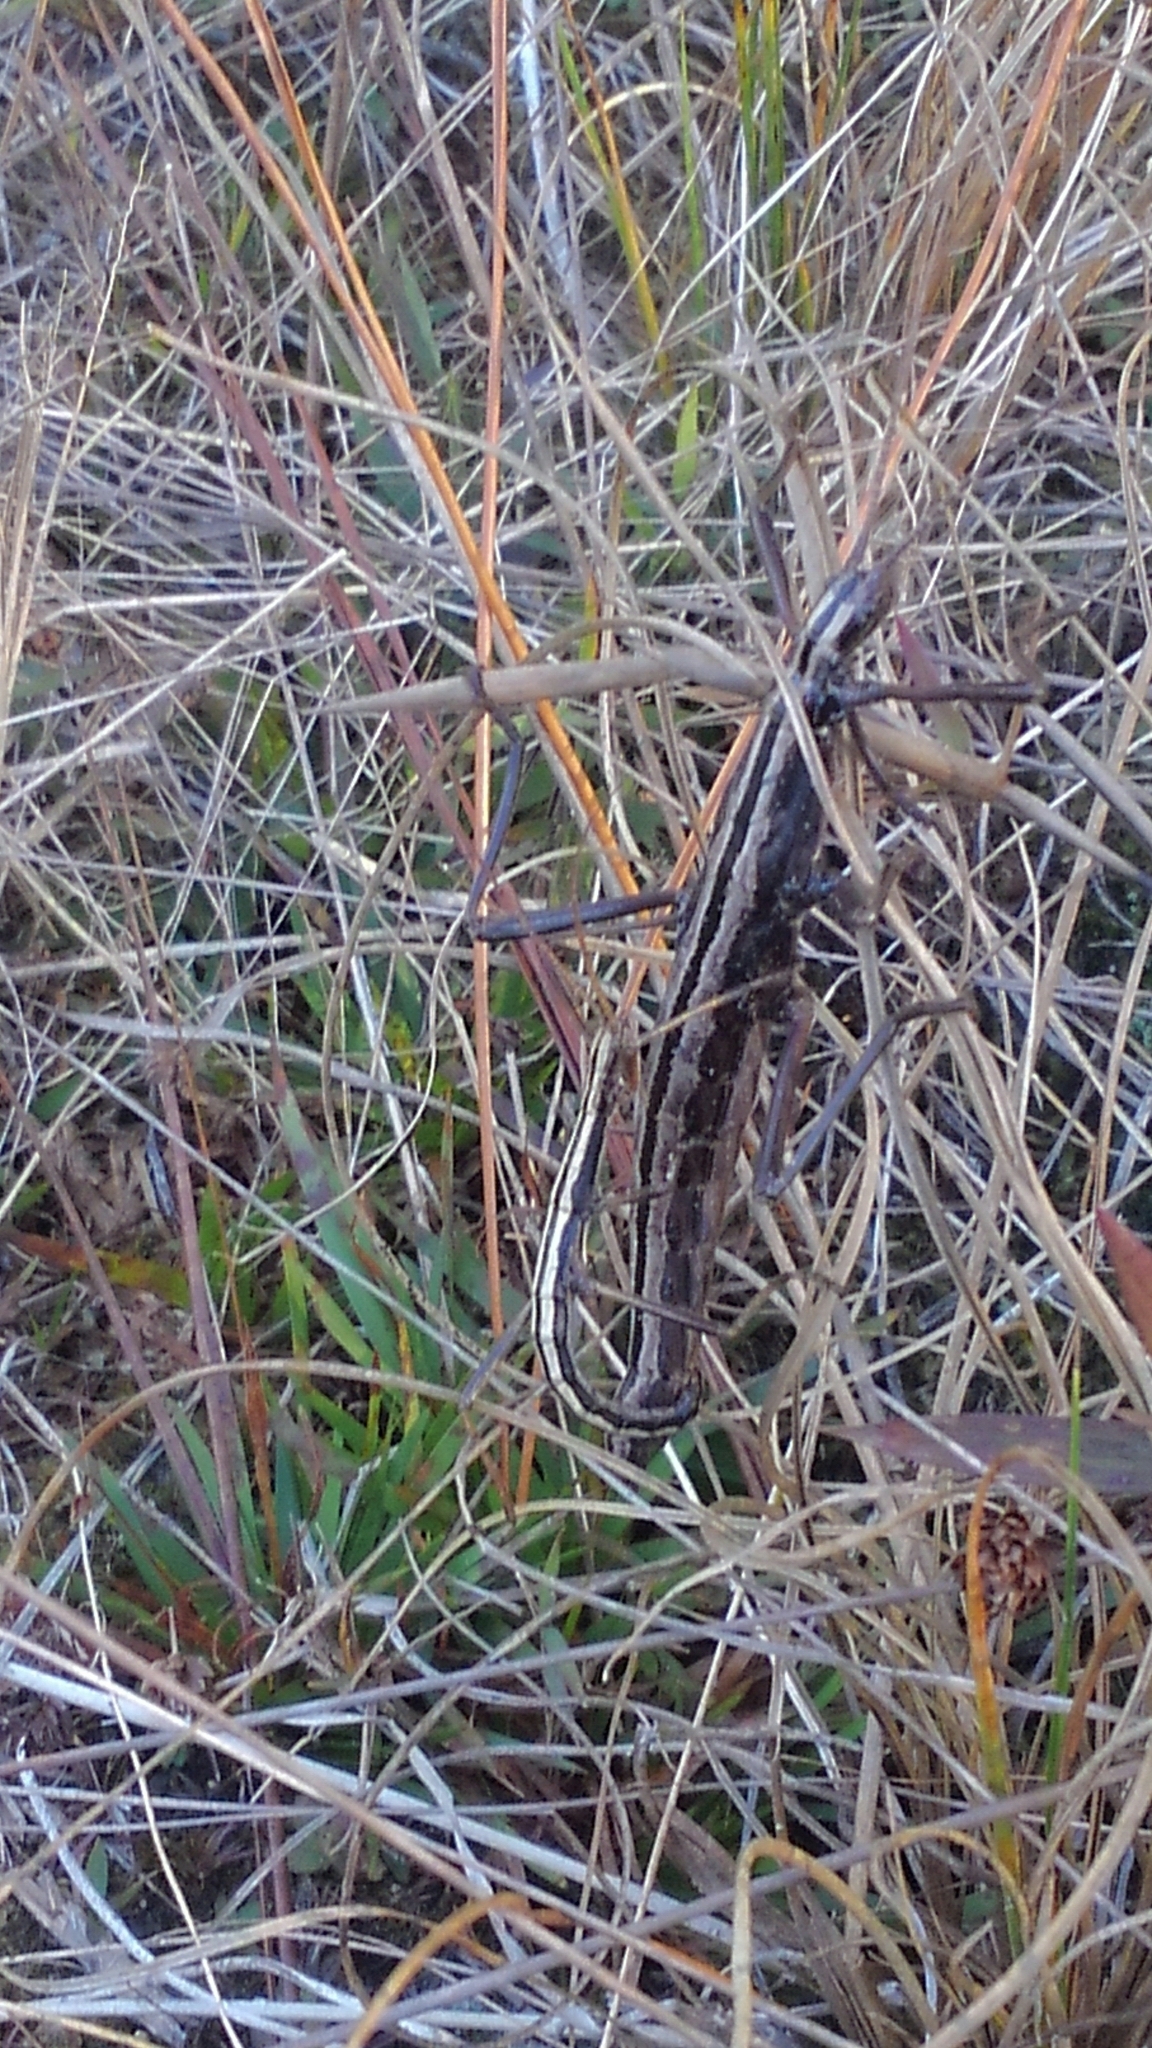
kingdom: Animalia
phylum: Arthropoda
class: Insecta
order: Phasmida
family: Pseudophasmatidae
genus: Anisomorpha
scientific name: Anisomorpha buprestoides
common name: Florida stick insect
